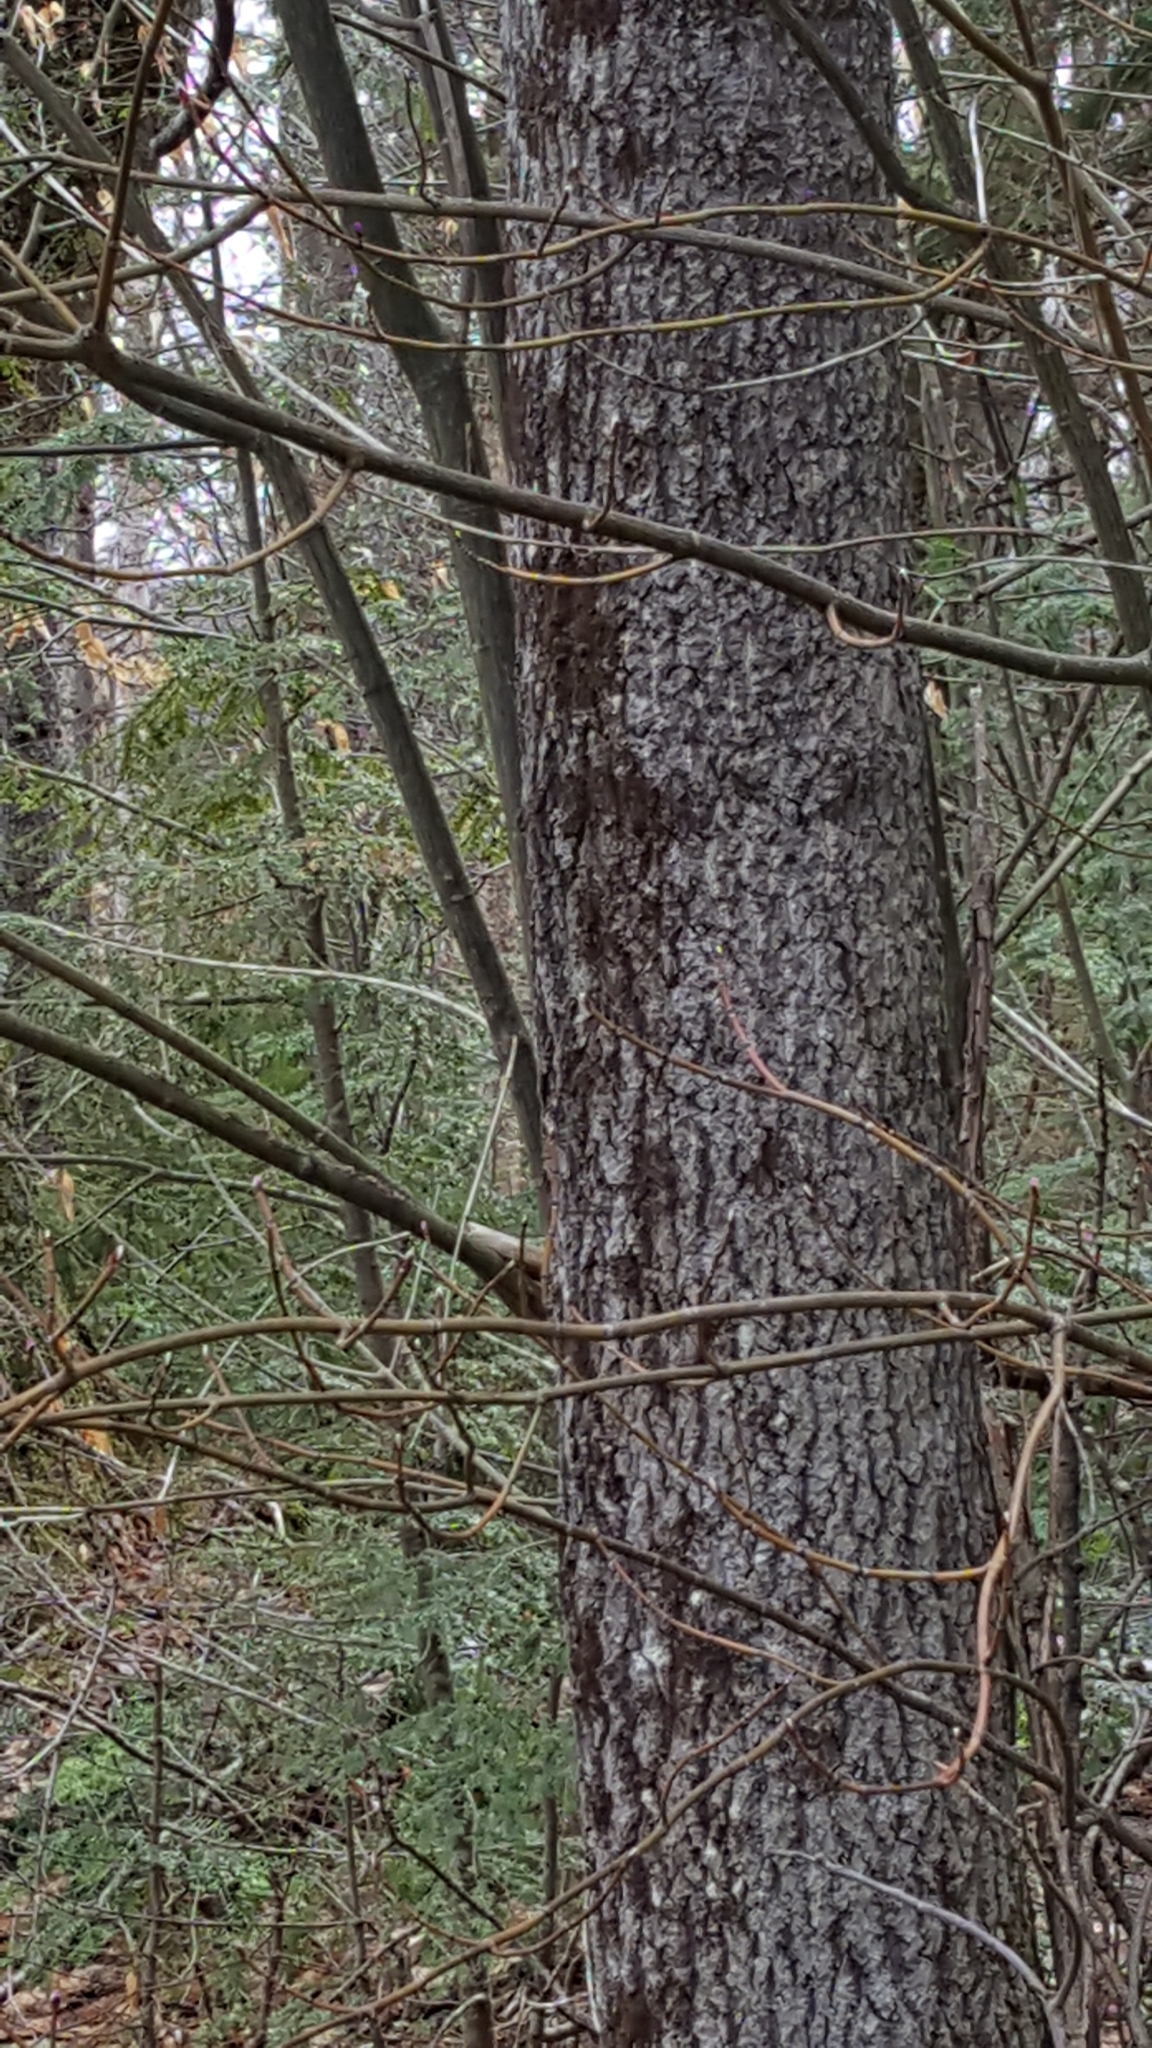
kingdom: Plantae
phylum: Tracheophyta
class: Magnoliopsida
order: Malpighiales
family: Salicaceae
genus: Populus
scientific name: Populus tremuloides
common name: Quaking aspen
